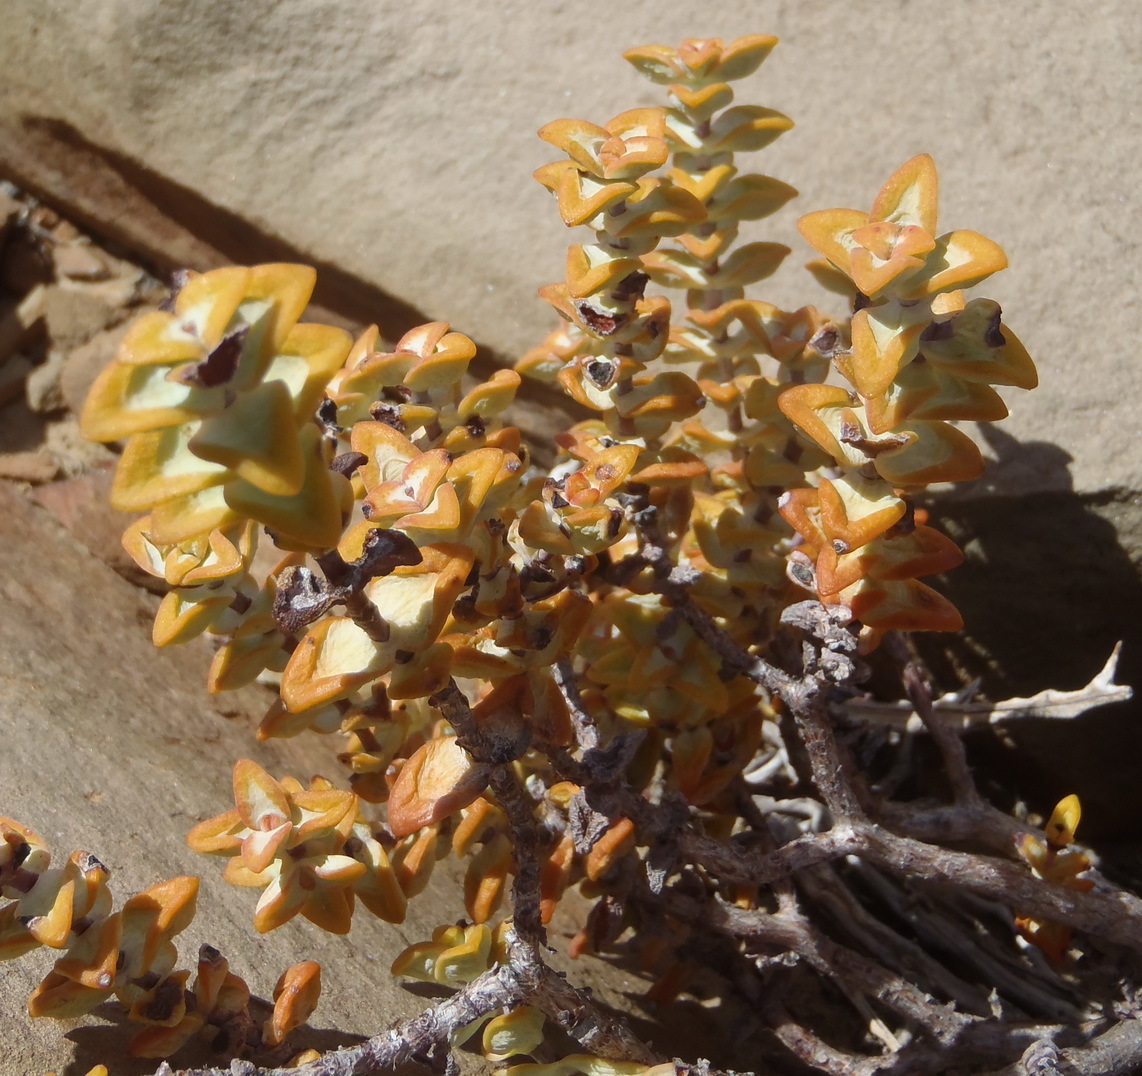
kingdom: Plantae
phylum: Tracheophyta
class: Magnoliopsida
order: Saxifragales
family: Crassulaceae
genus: Crassula
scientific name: Crassula rupestris
